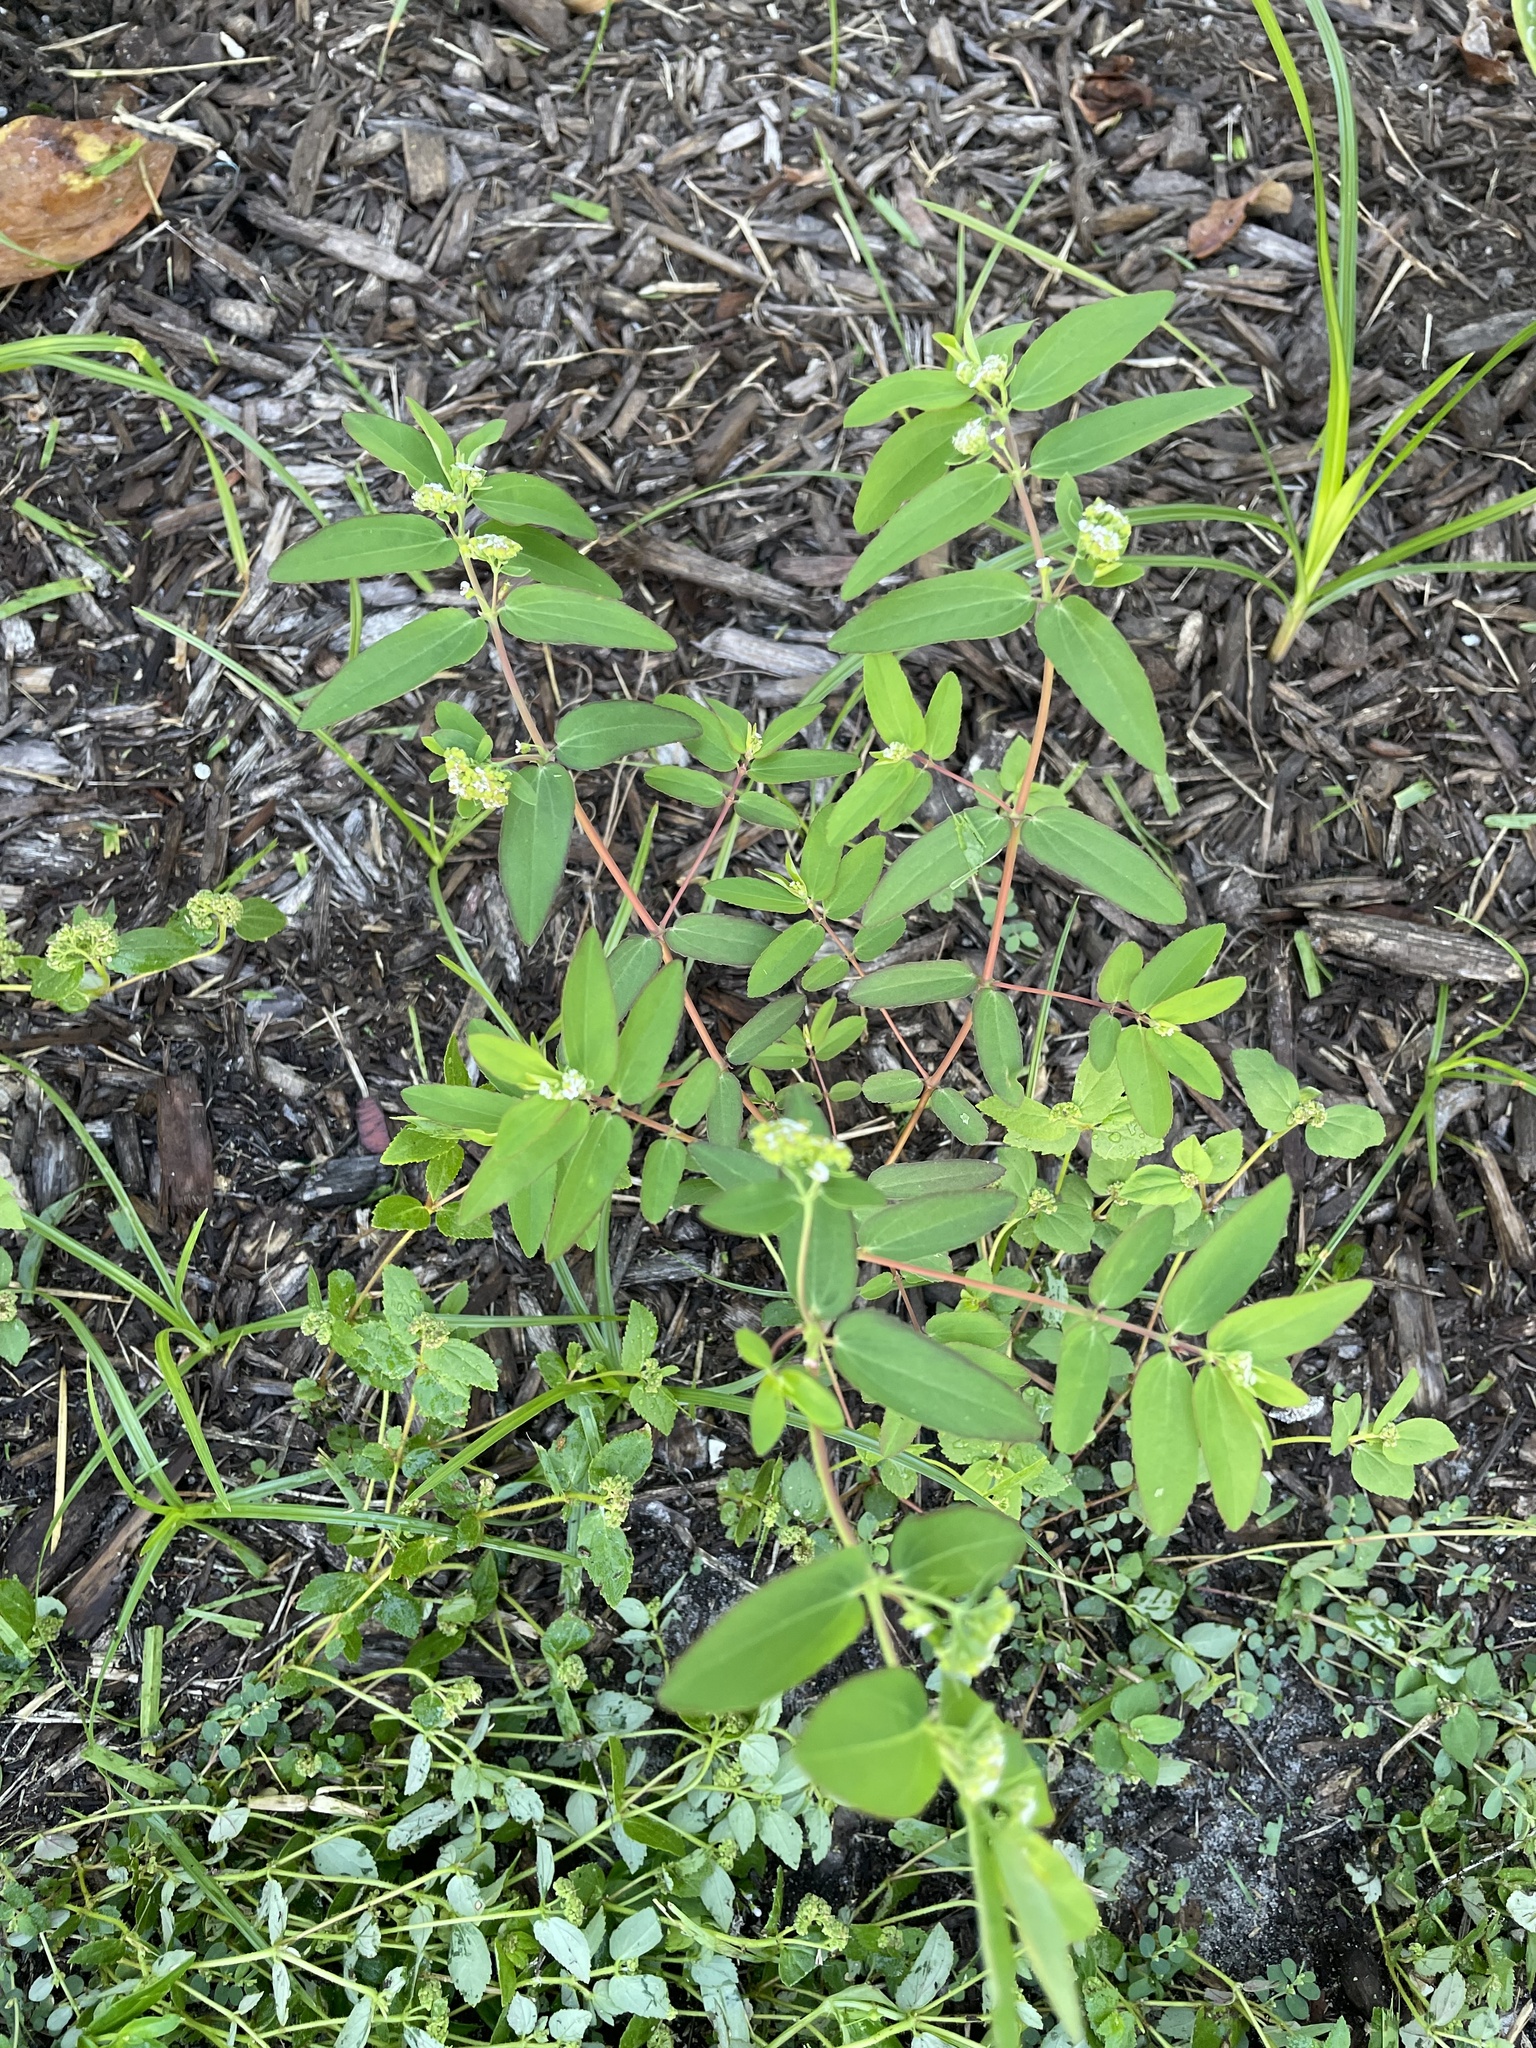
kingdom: Plantae
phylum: Tracheophyta
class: Magnoliopsida
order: Malpighiales
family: Euphorbiaceae
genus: Euphorbia
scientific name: Euphorbia hypericifolia
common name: Graceful sandmat
